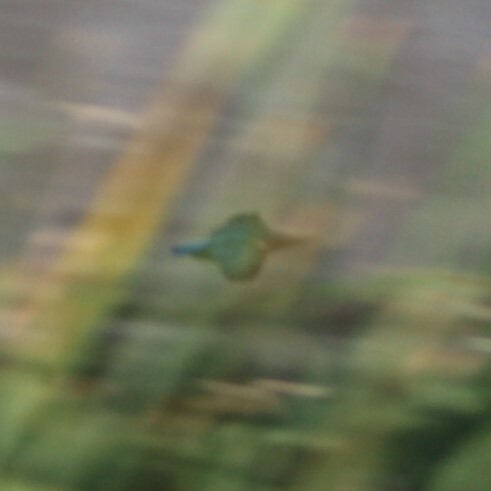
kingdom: Animalia
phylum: Chordata
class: Aves
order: Coraciiformes
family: Alcedinidae
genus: Alcedo
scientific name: Alcedo atthis
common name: Common kingfisher
